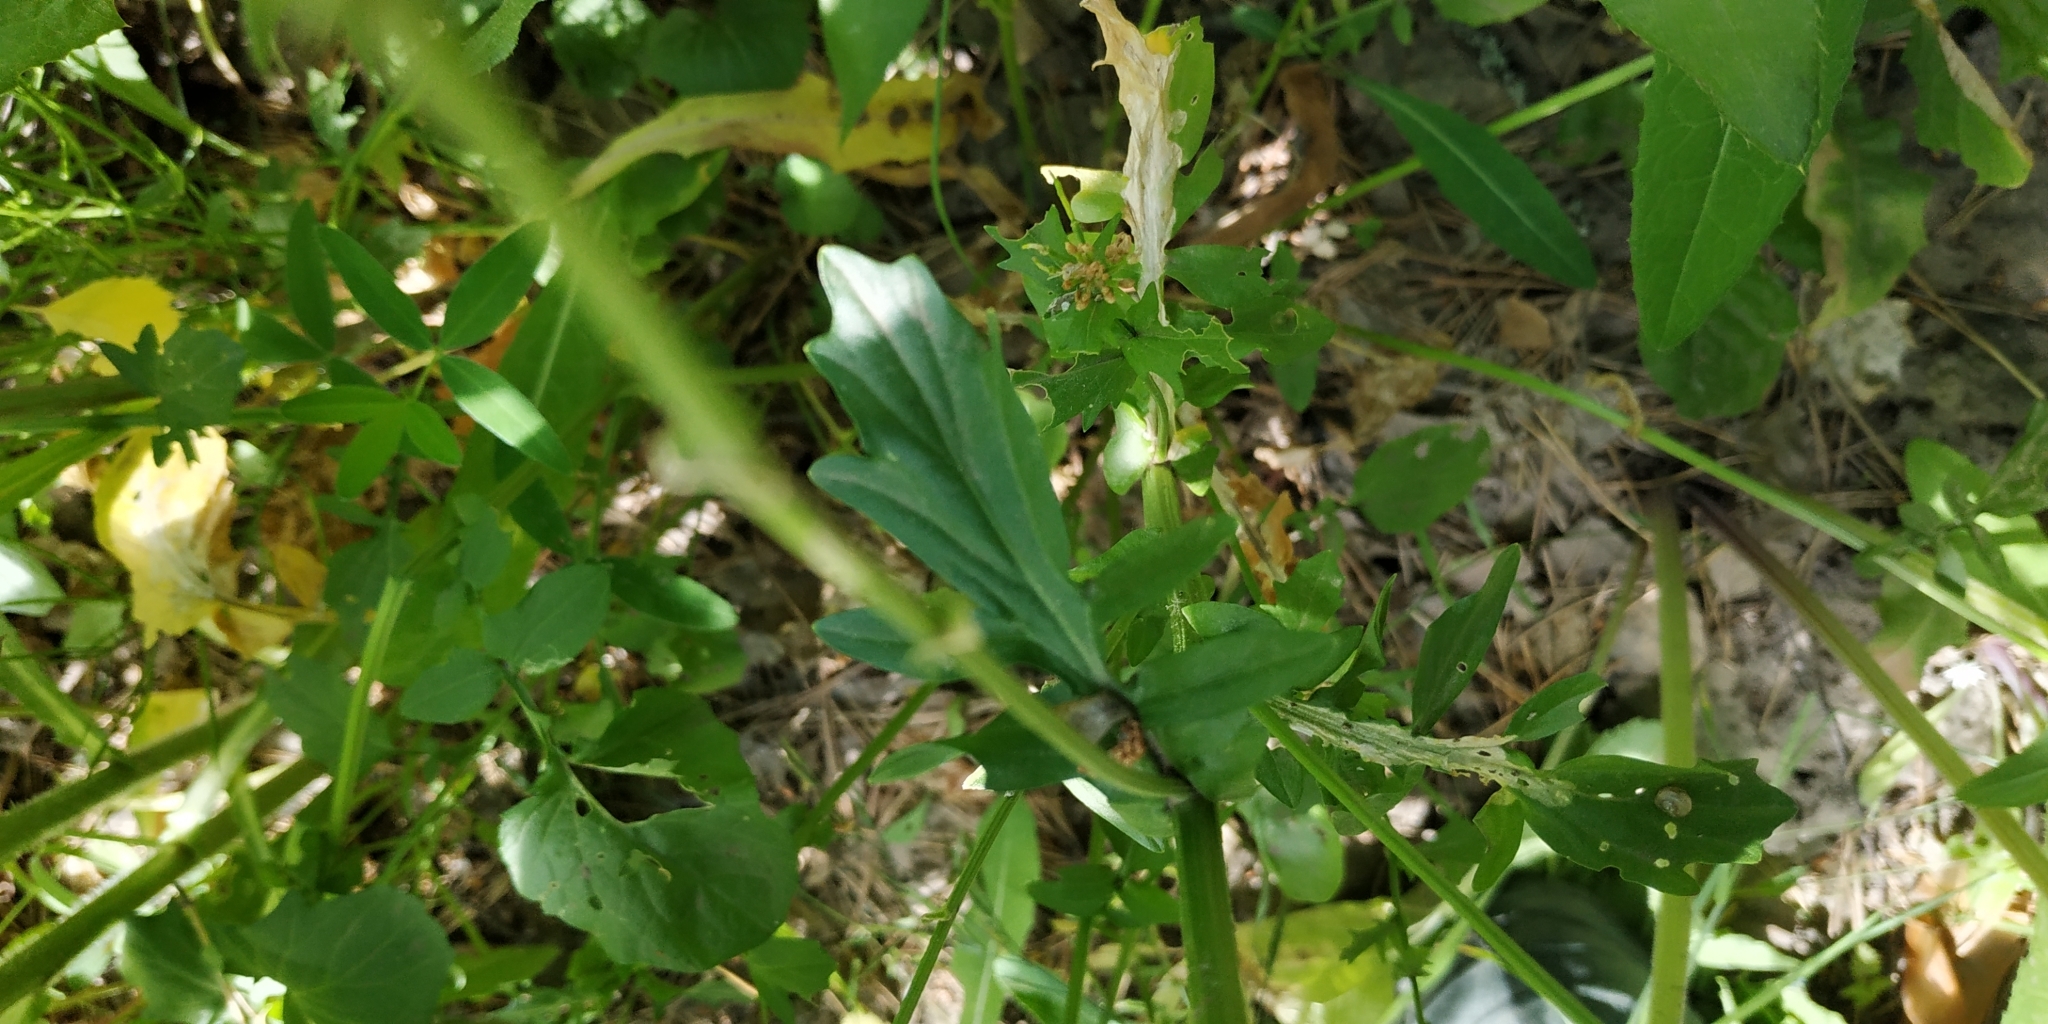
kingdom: Plantae
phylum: Tracheophyta
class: Magnoliopsida
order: Brassicales
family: Brassicaceae
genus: Barbarea
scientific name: Barbarea vulgaris
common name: Cressy-greens
